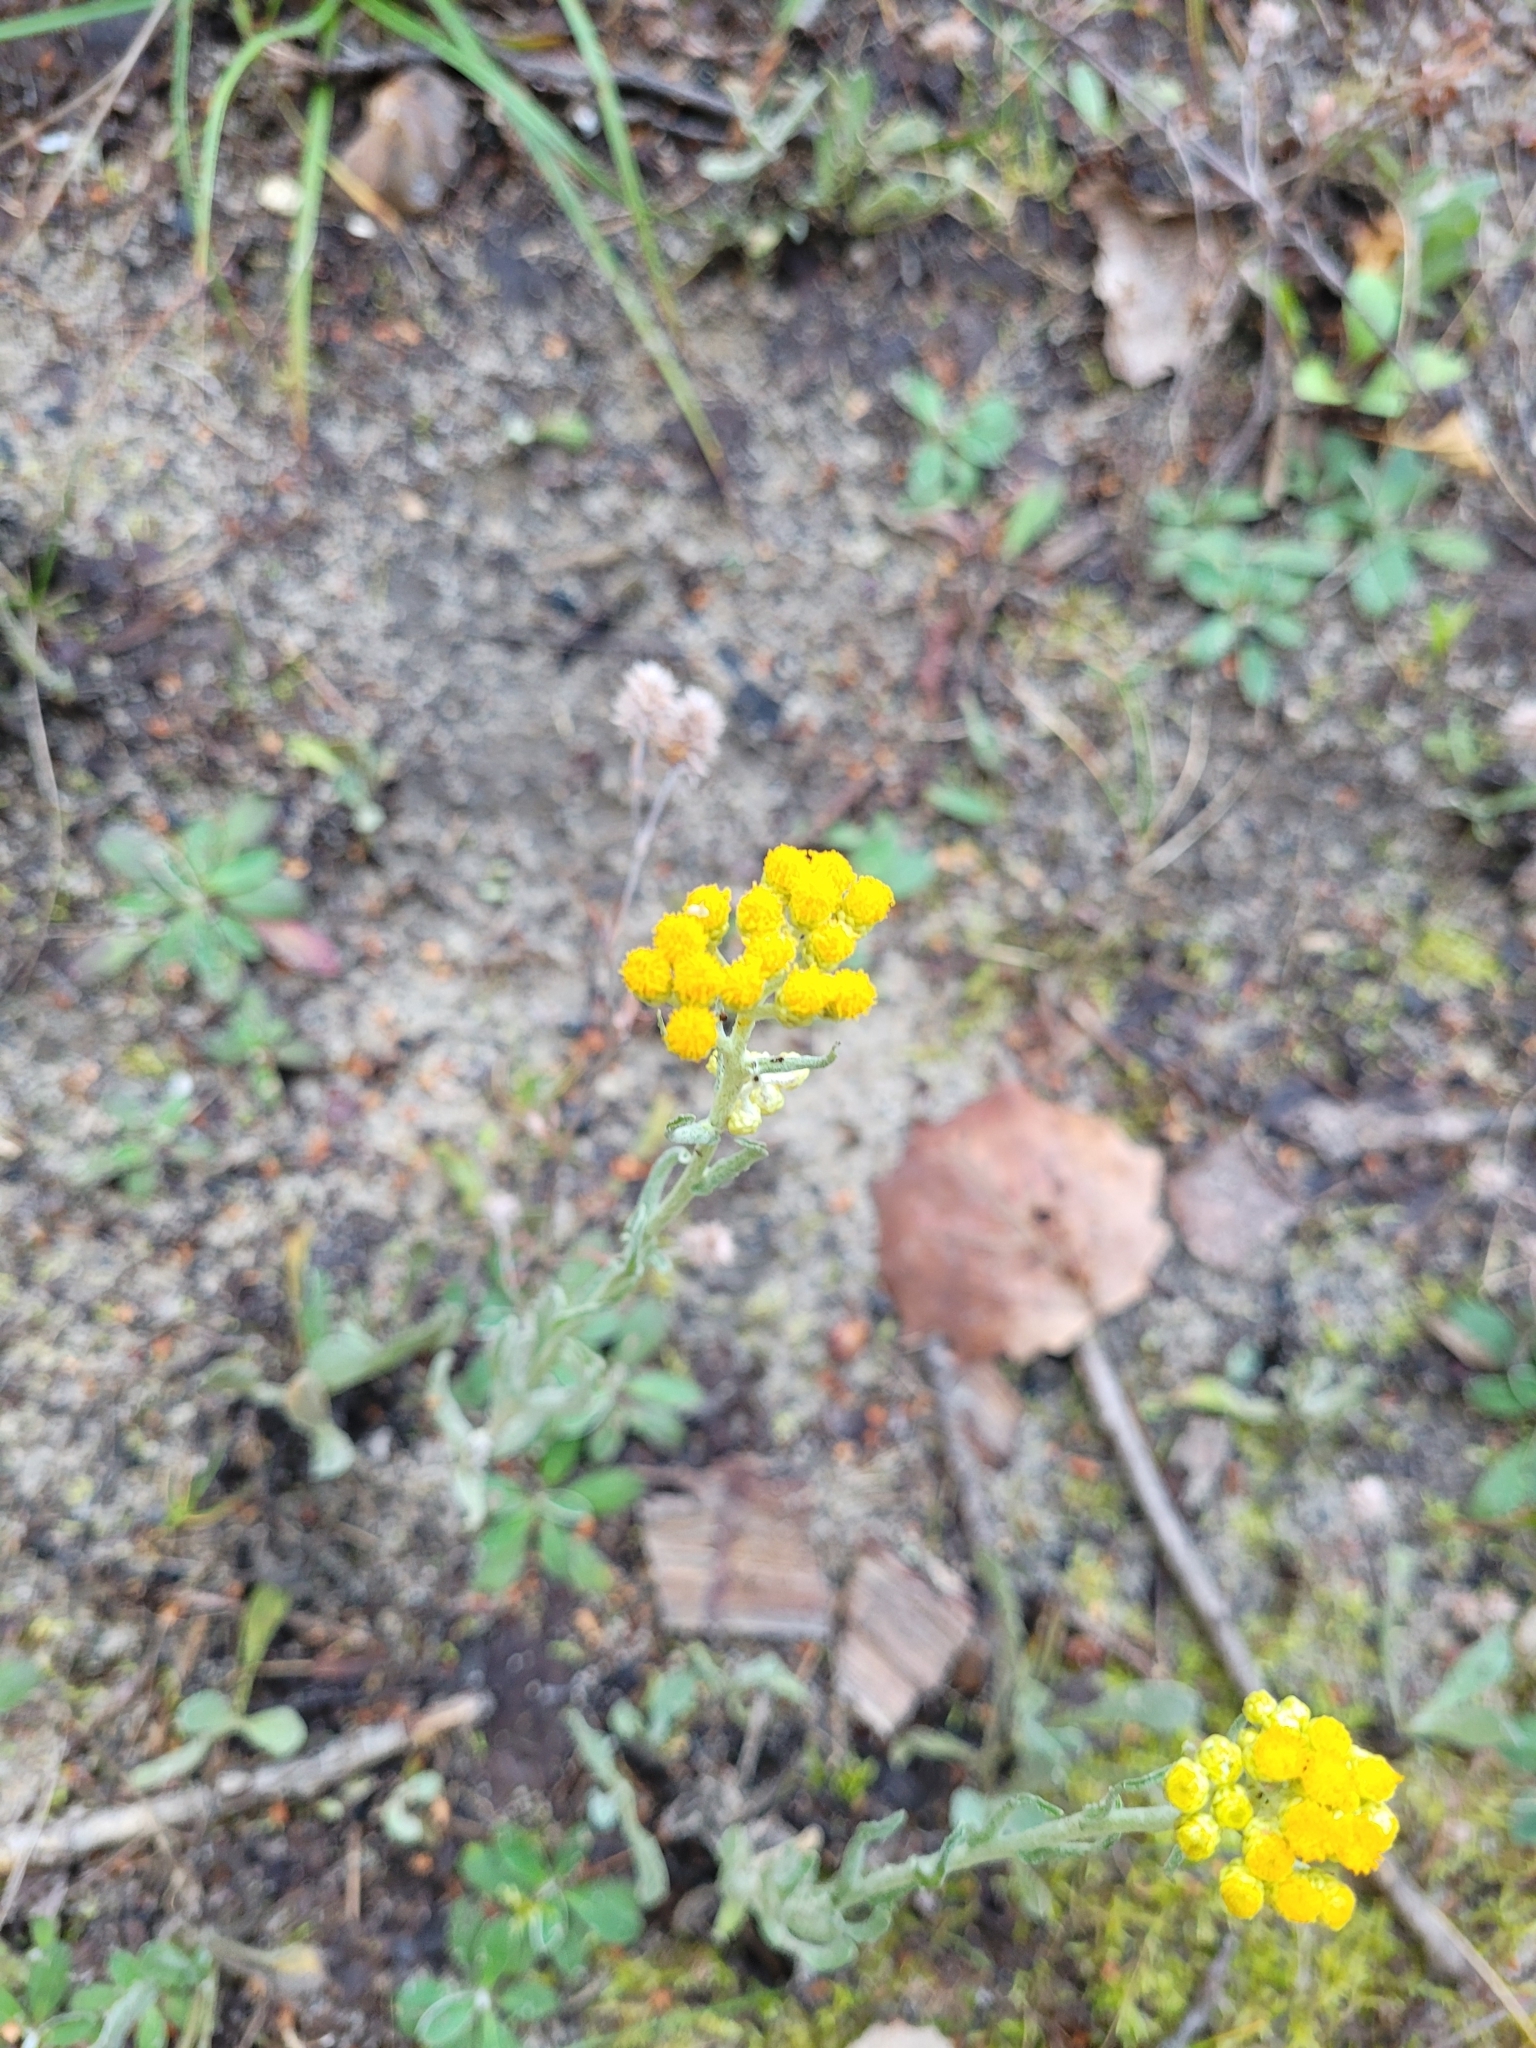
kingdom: Plantae
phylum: Tracheophyta
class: Magnoliopsida
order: Asterales
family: Asteraceae
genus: Helichrysum
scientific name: Helichrysum arenarium
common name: Strawflower
